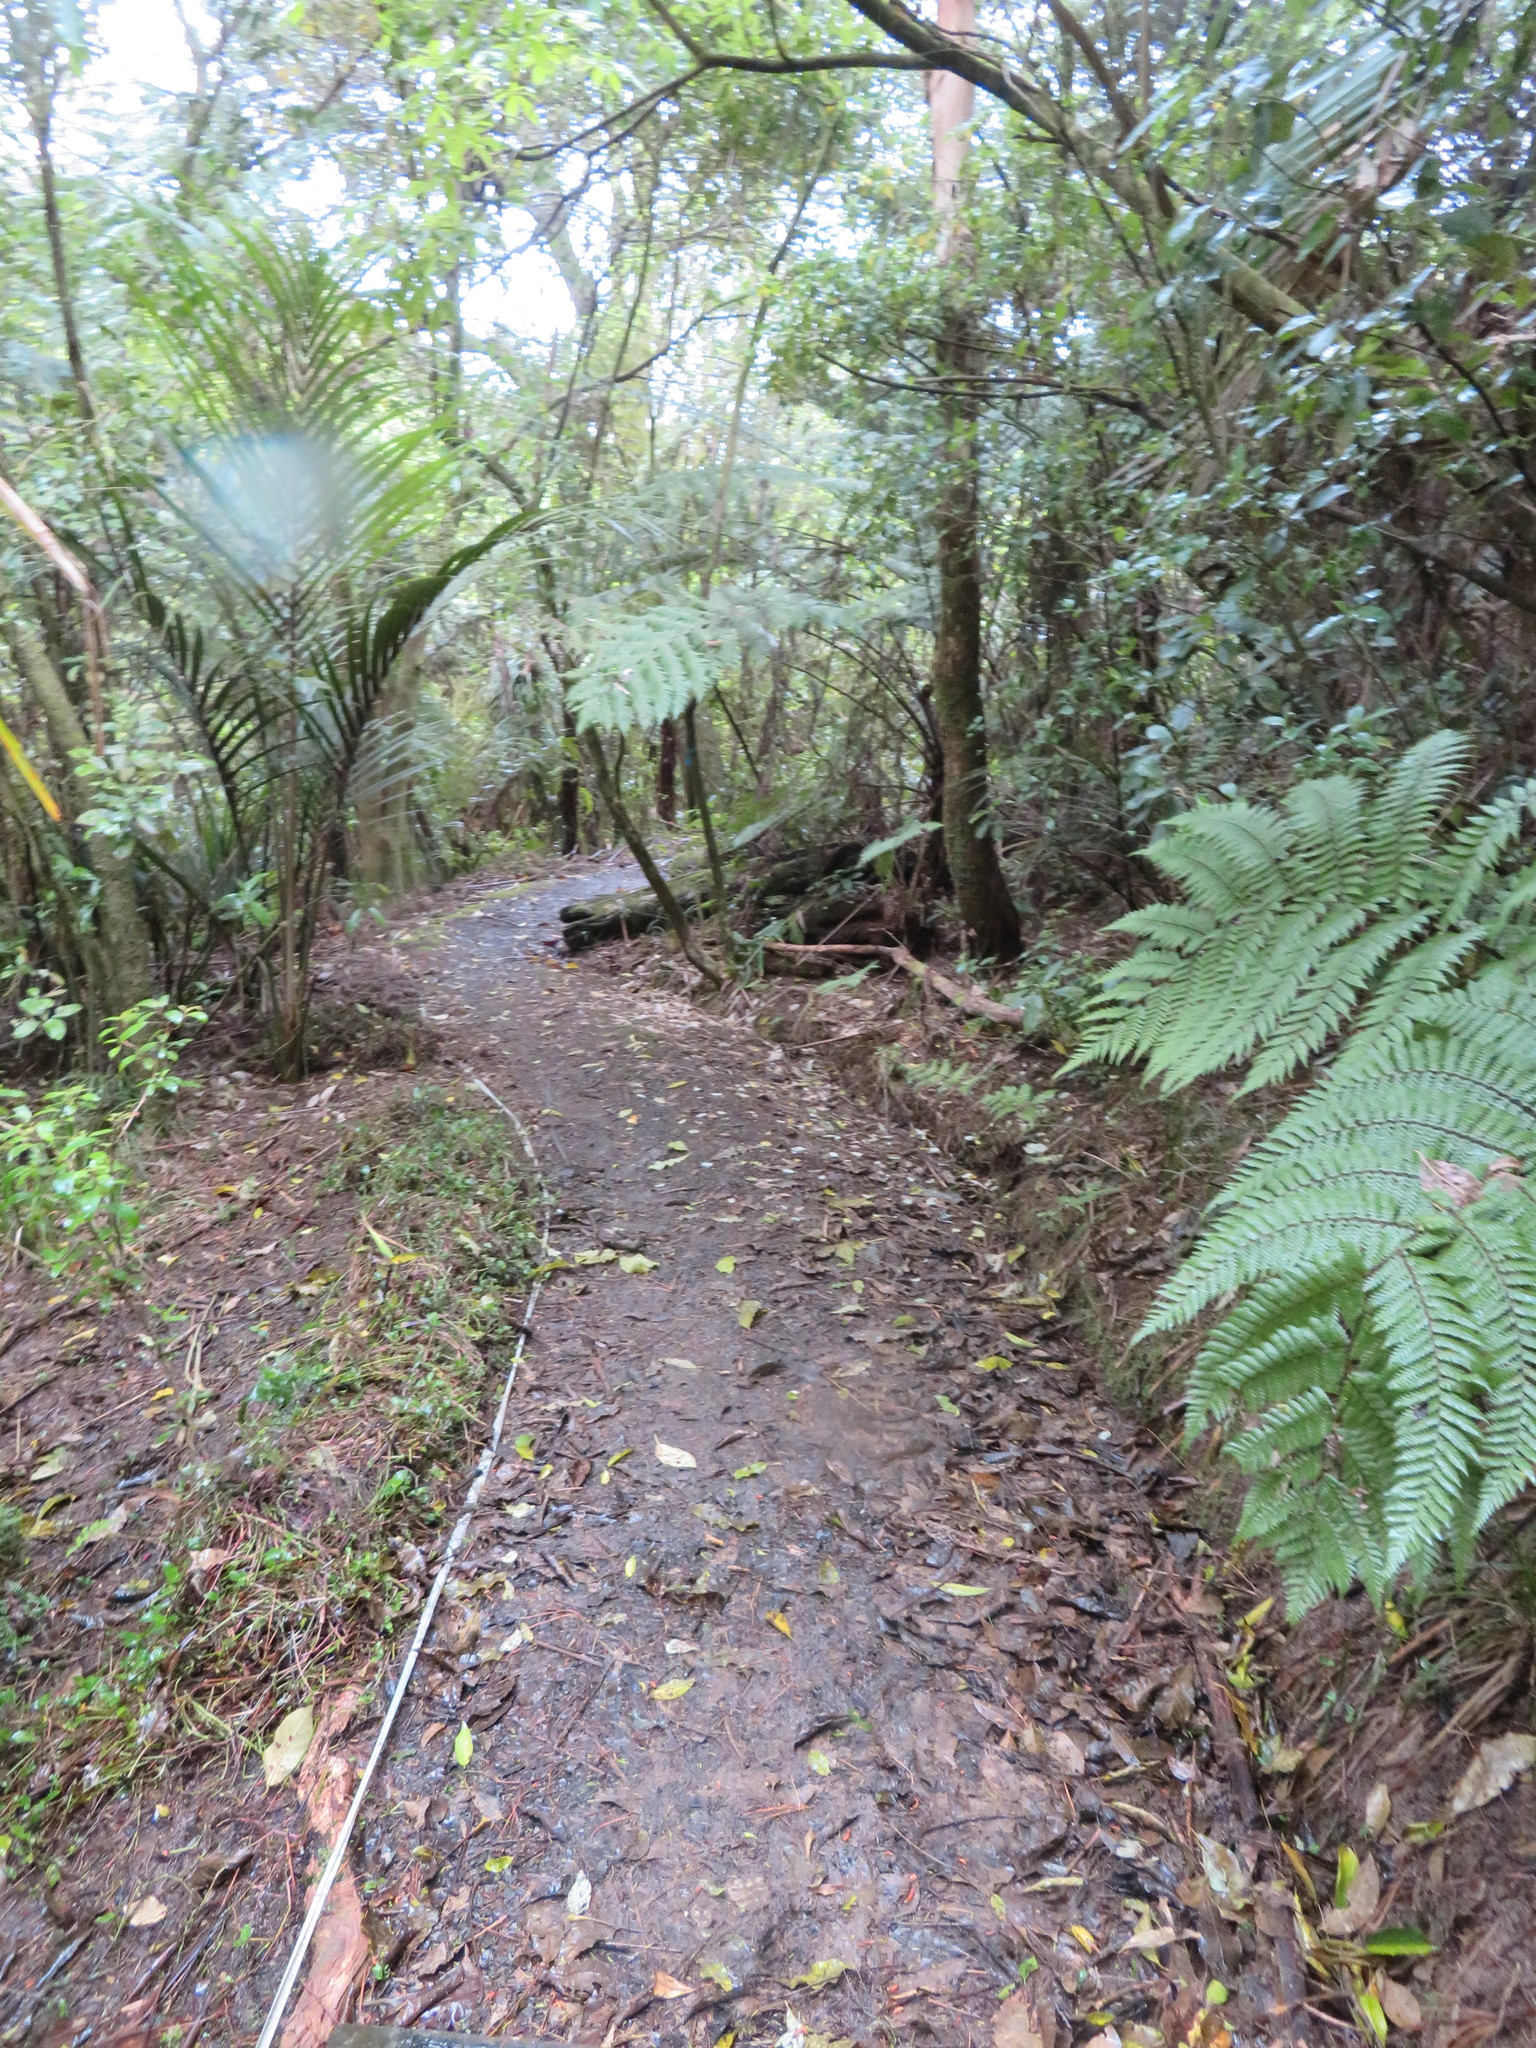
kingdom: Plantae
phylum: Tracheophyta
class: Liliopsida
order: Commelinales
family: Commelinaceae
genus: Tradescantia
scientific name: Tradescantia fluminensis
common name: Wandering-jew
